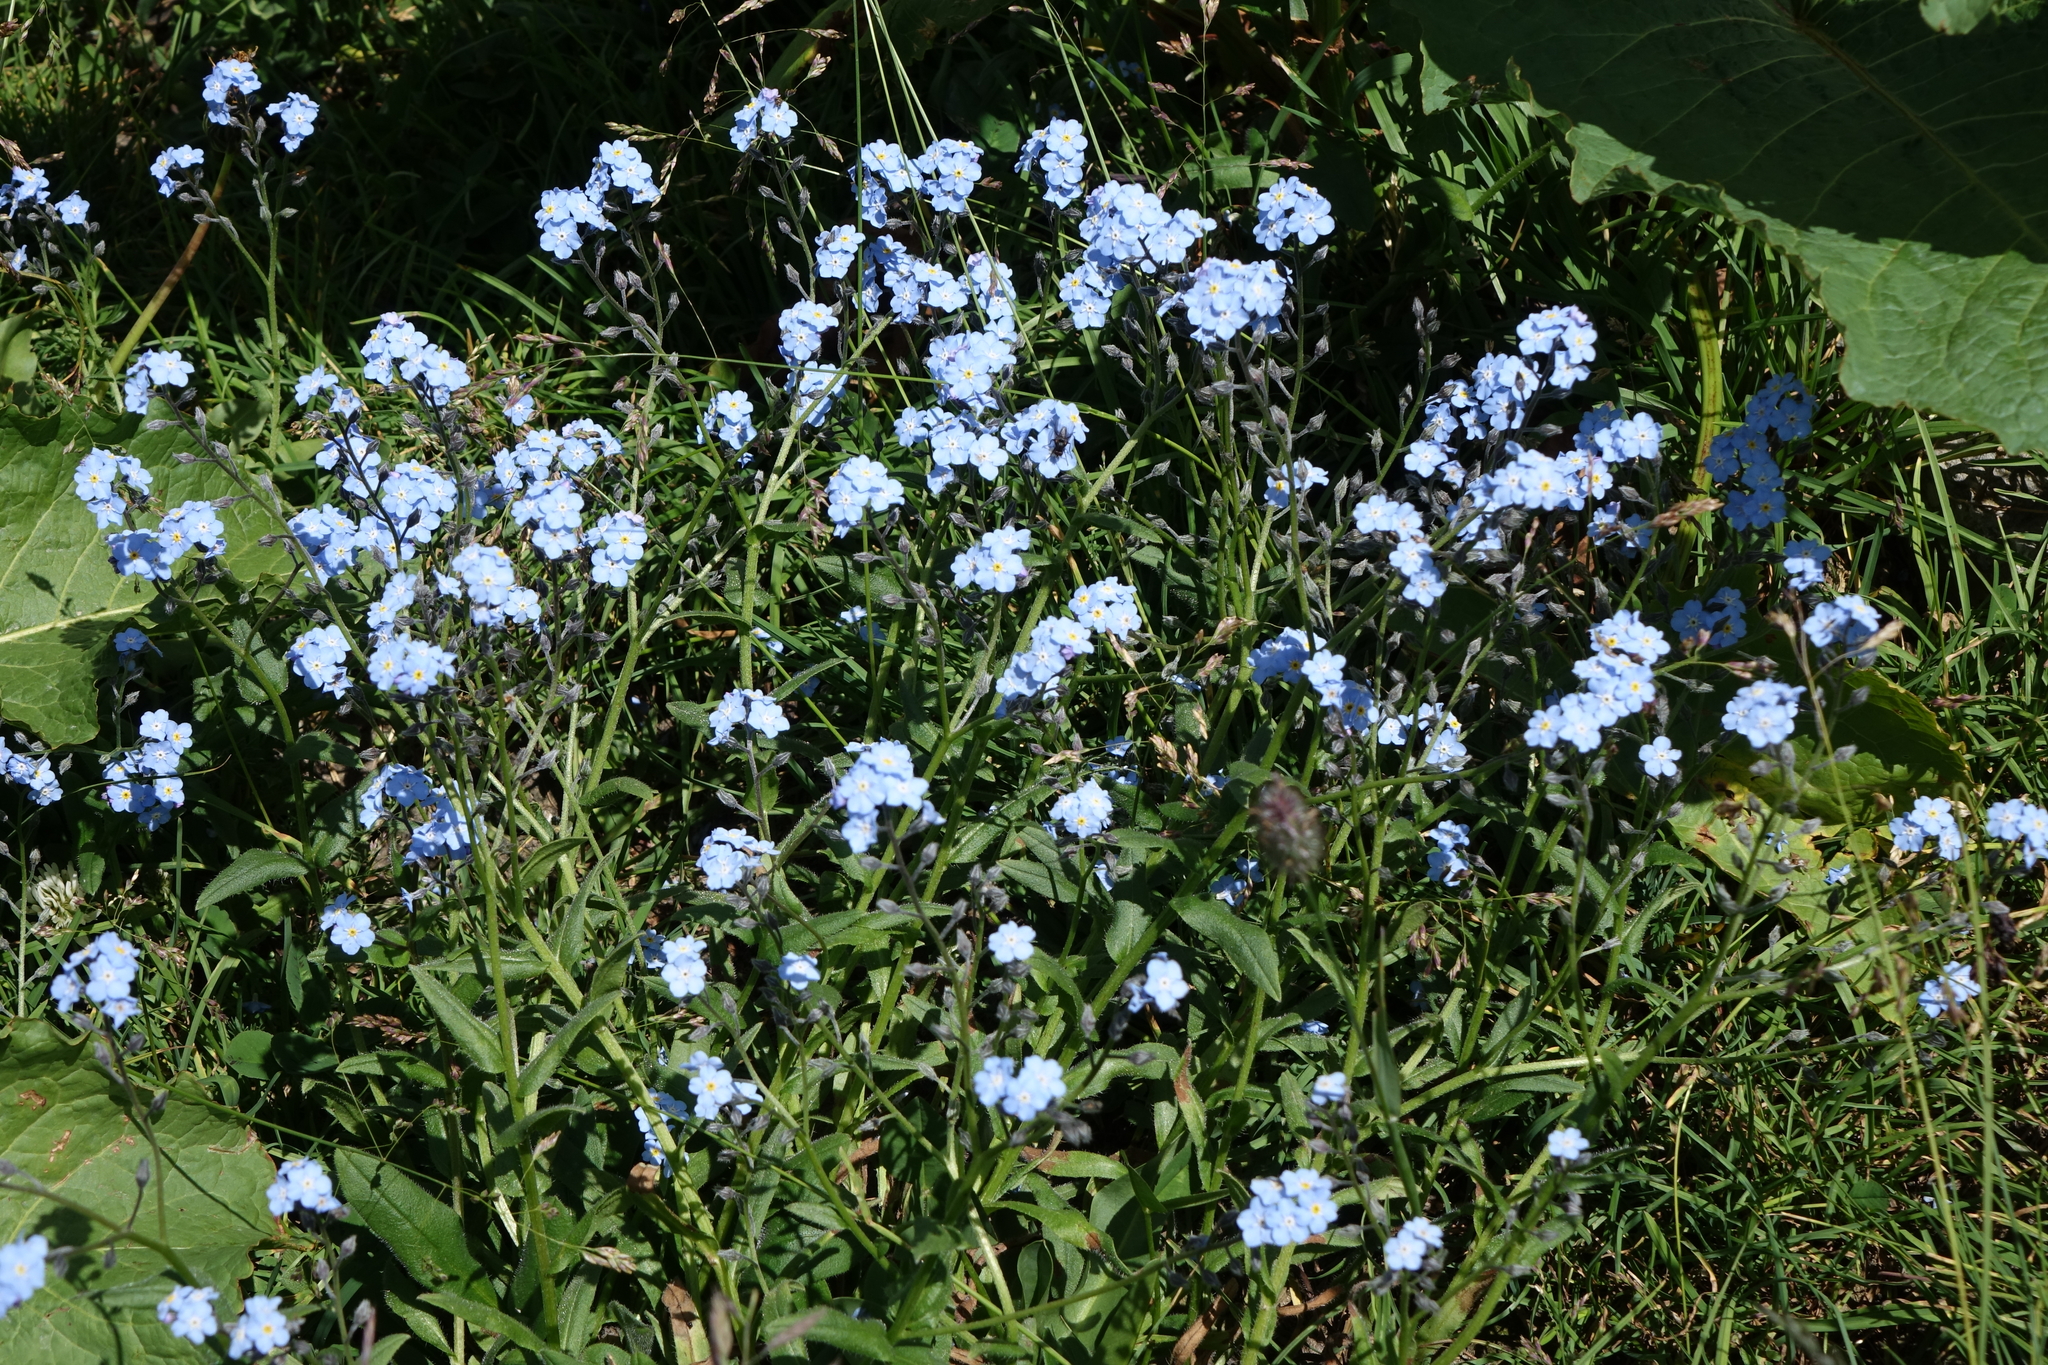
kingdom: Plantae
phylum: Tracheophyta
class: Magnoliopsida
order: Boraginales
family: Boraginaceae
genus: Myosotis
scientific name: Myosotis alpestris
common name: Alpine forget-me-not
